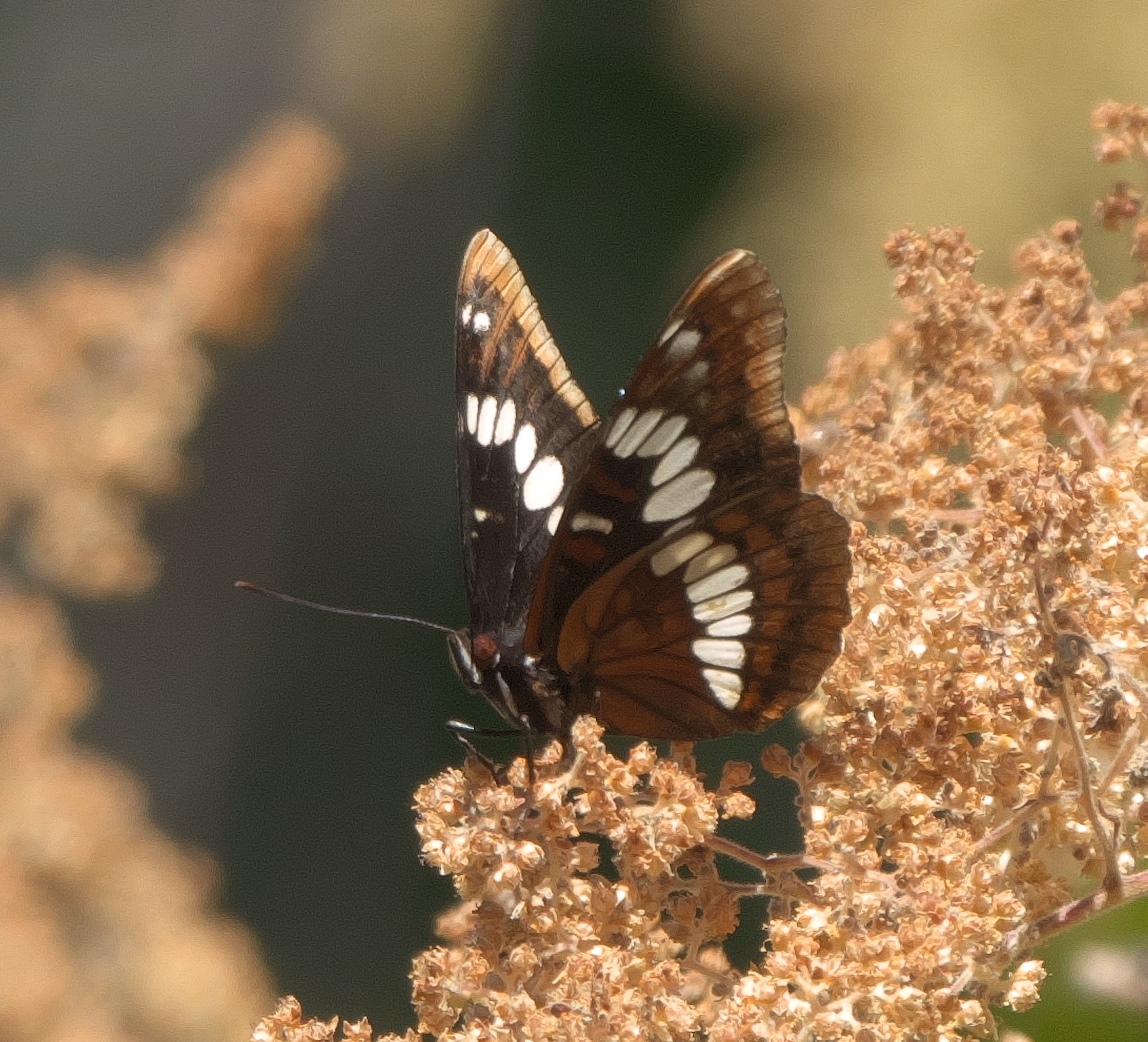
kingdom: Animalia
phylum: Arthropoda
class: Insecta
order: Lepidoptera
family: Nymphalidae
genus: Limenitis
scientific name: Limenitis lorquini
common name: Lorquin's admiral
